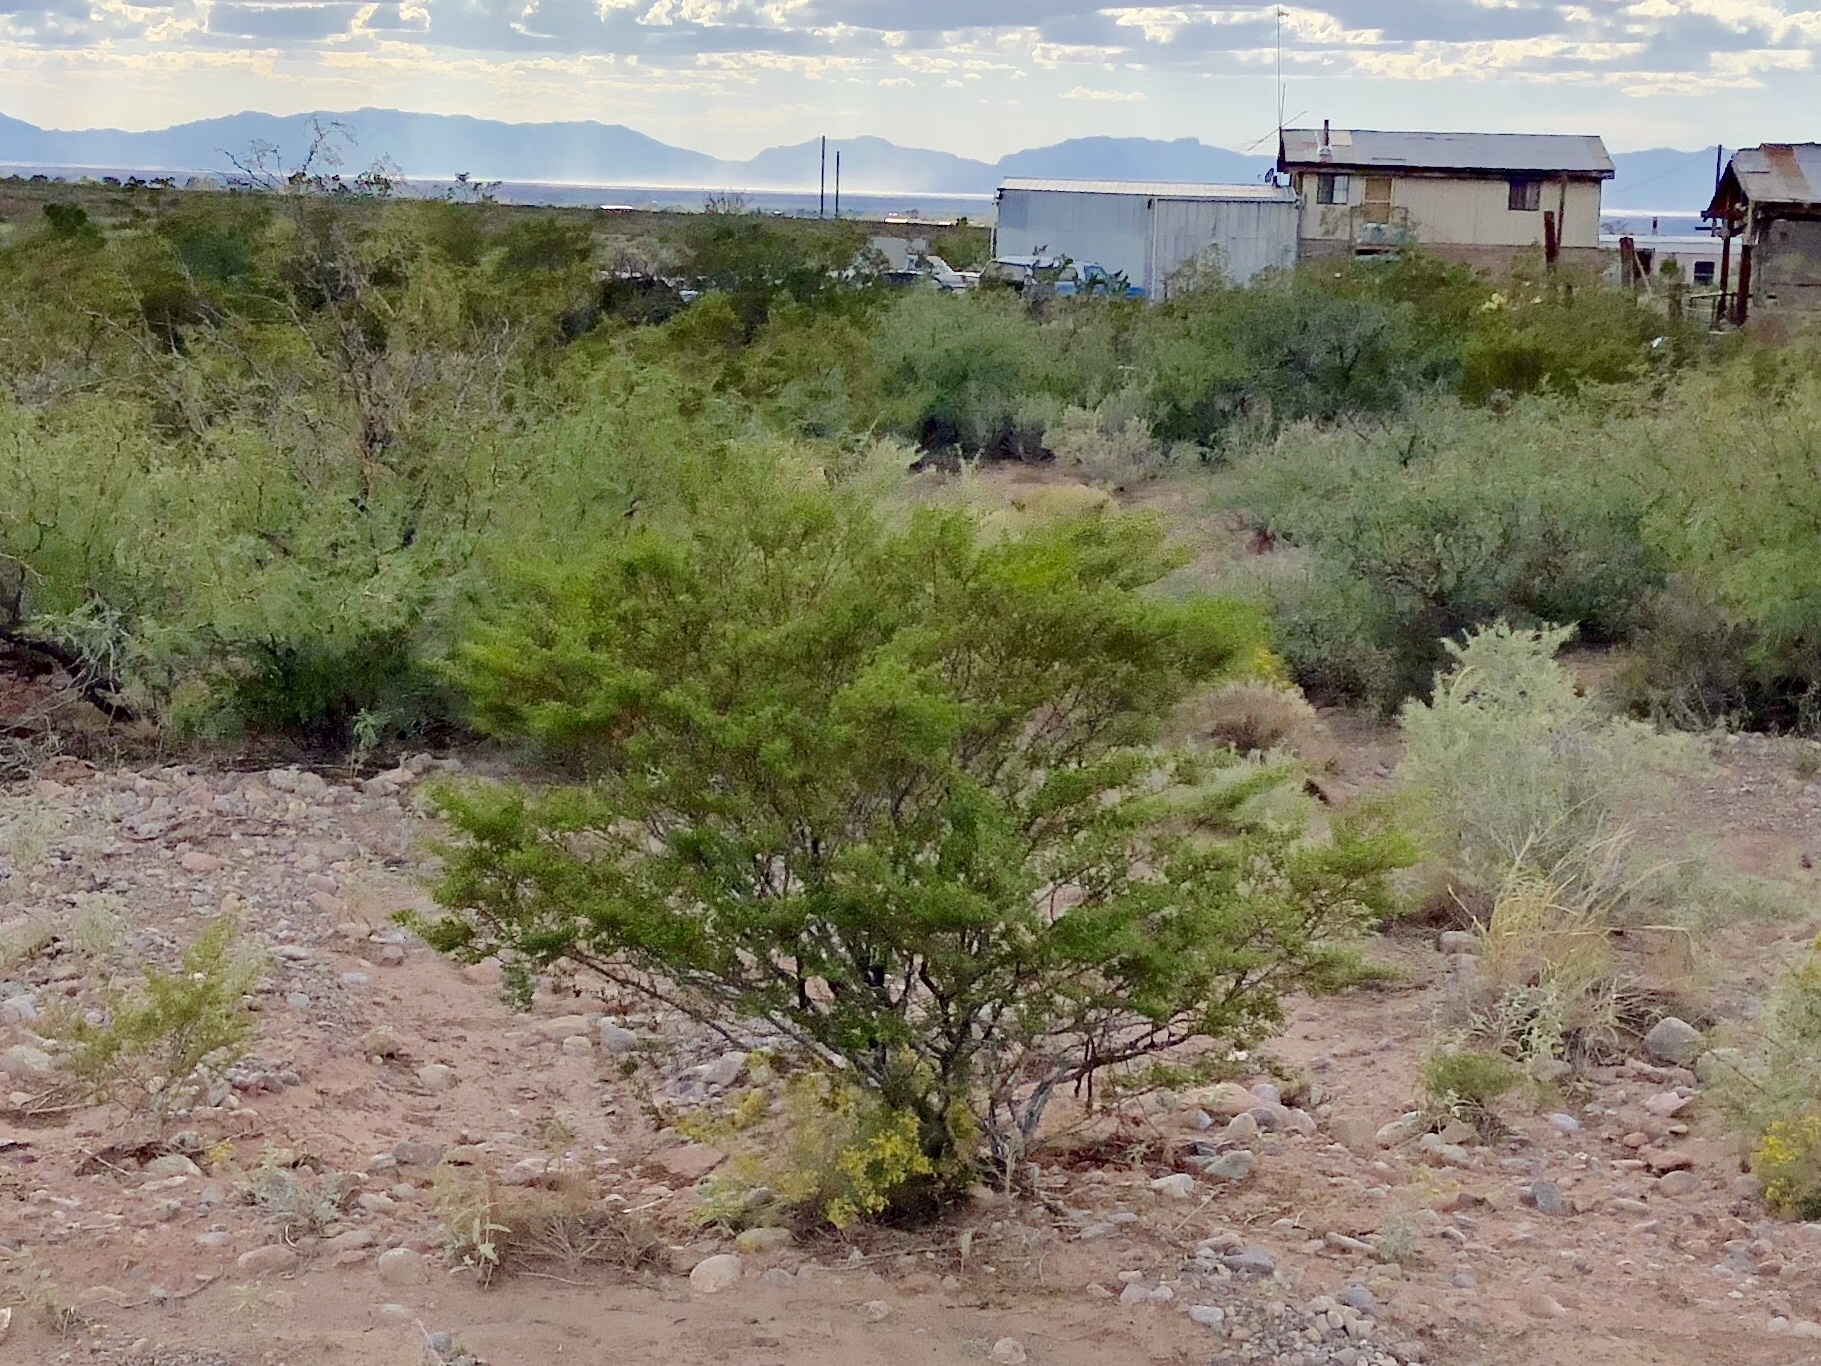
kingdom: Plantae
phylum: Tracheophyta
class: Magnoliopsida
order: Zygophyllales
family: Zygophyllaceae
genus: Larrea
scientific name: Larrea tridentata
